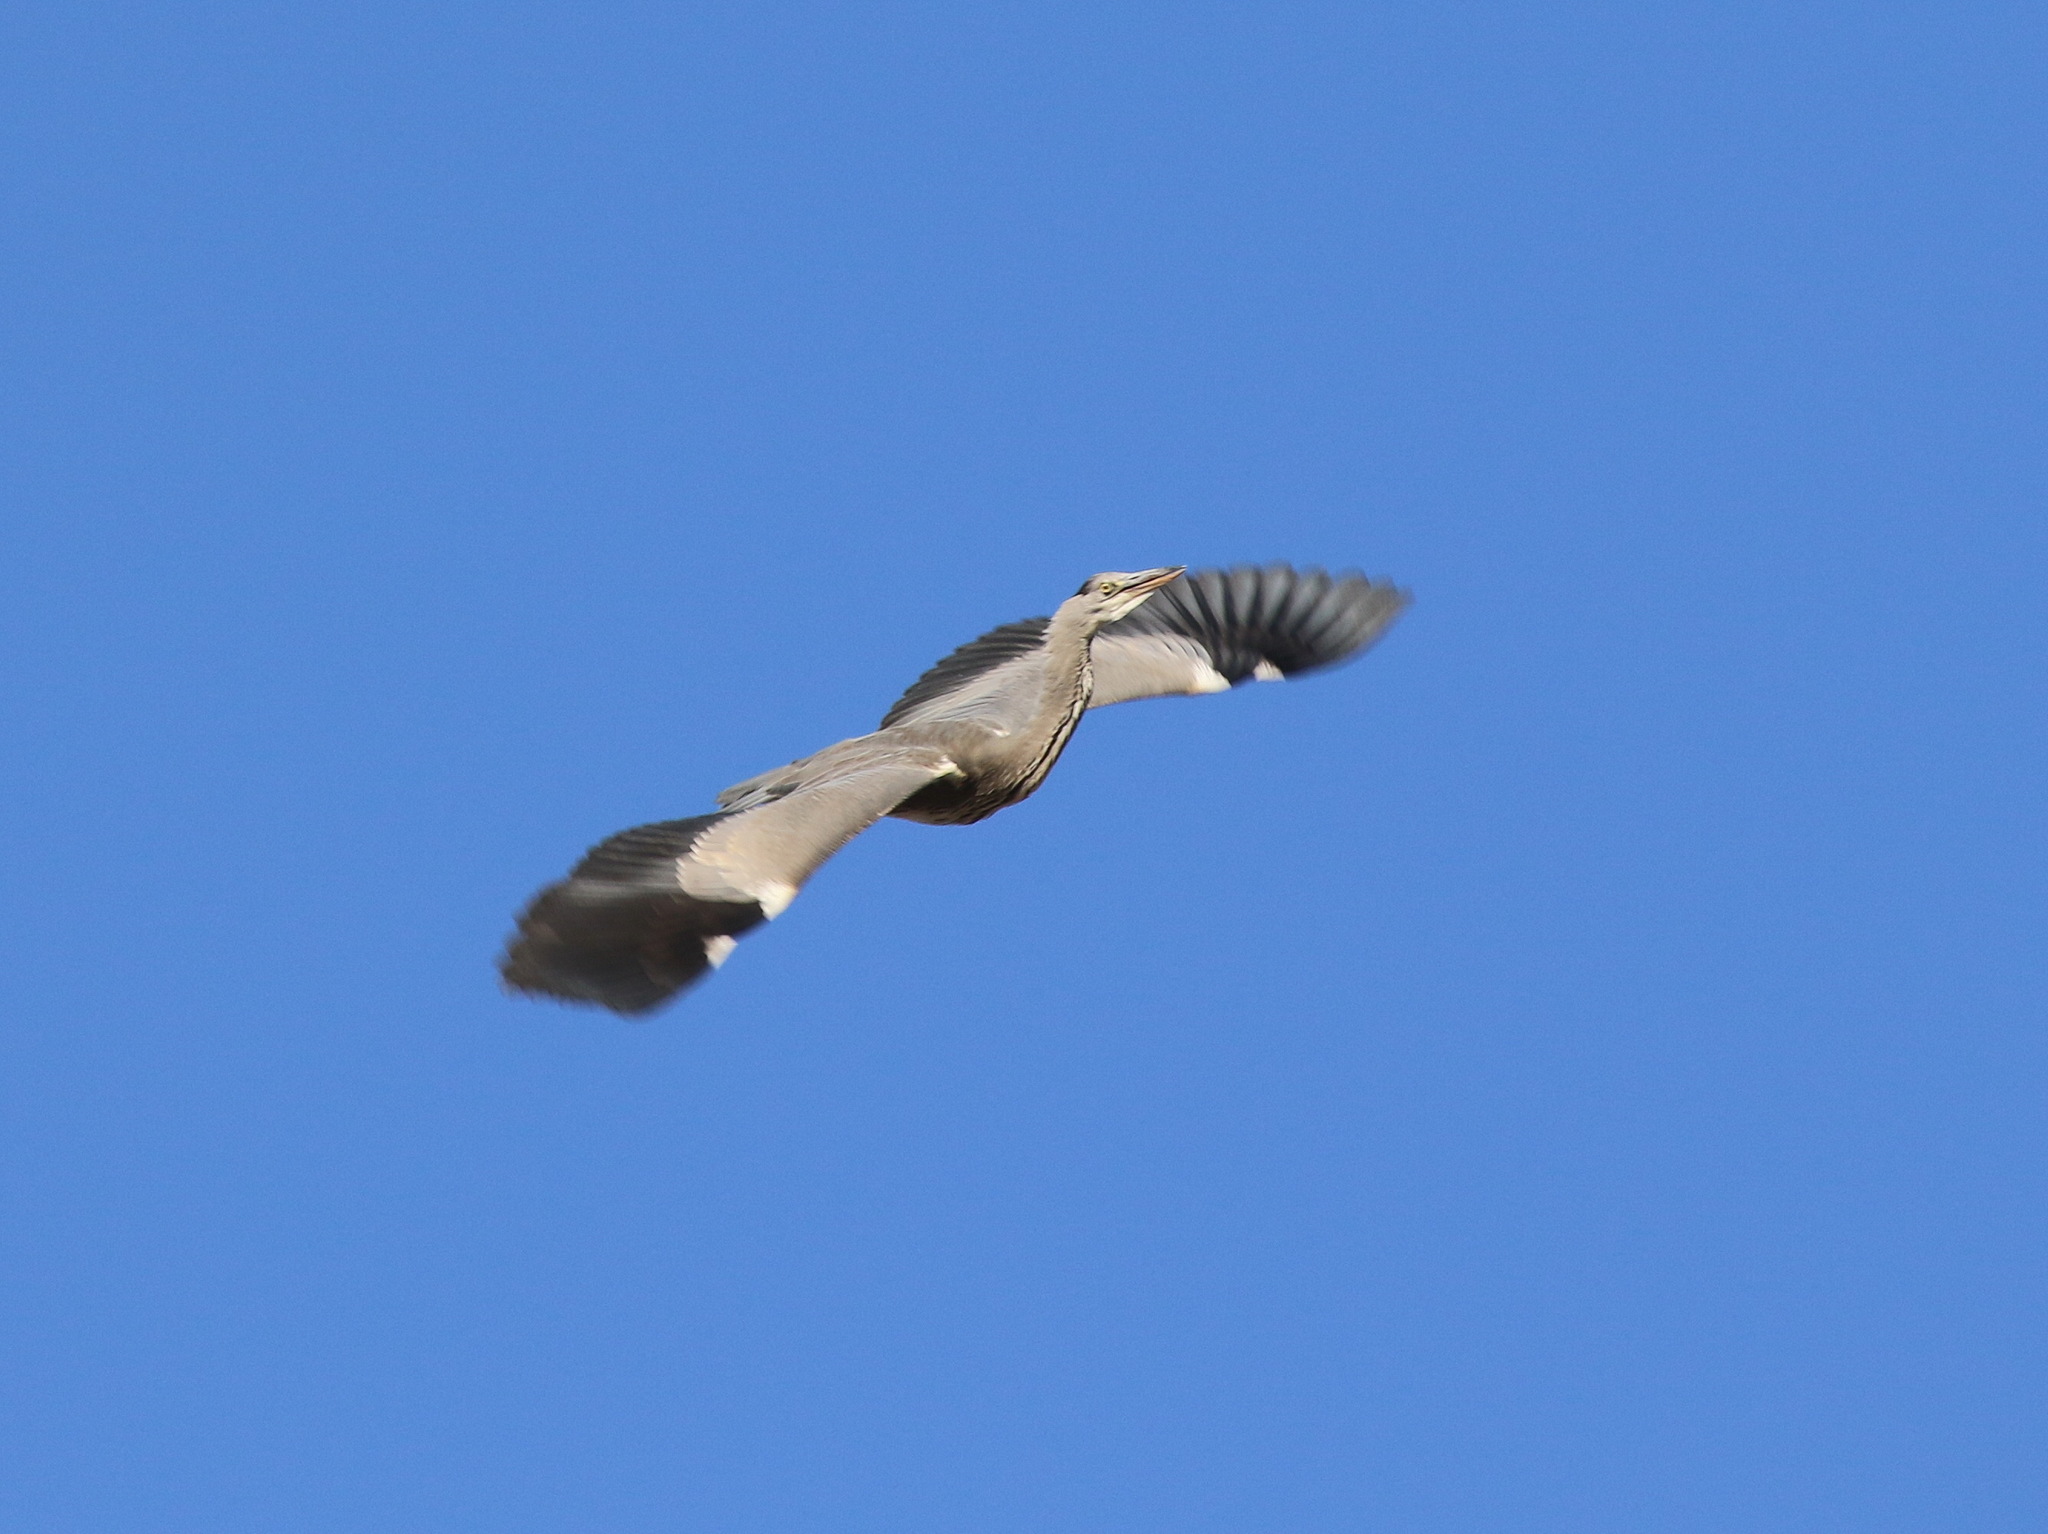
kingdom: Animalia
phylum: Chordata
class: Aves
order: Pelecaniformes
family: Ardeidae
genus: Ardea
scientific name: Ardea cinerea
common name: Grey heron
